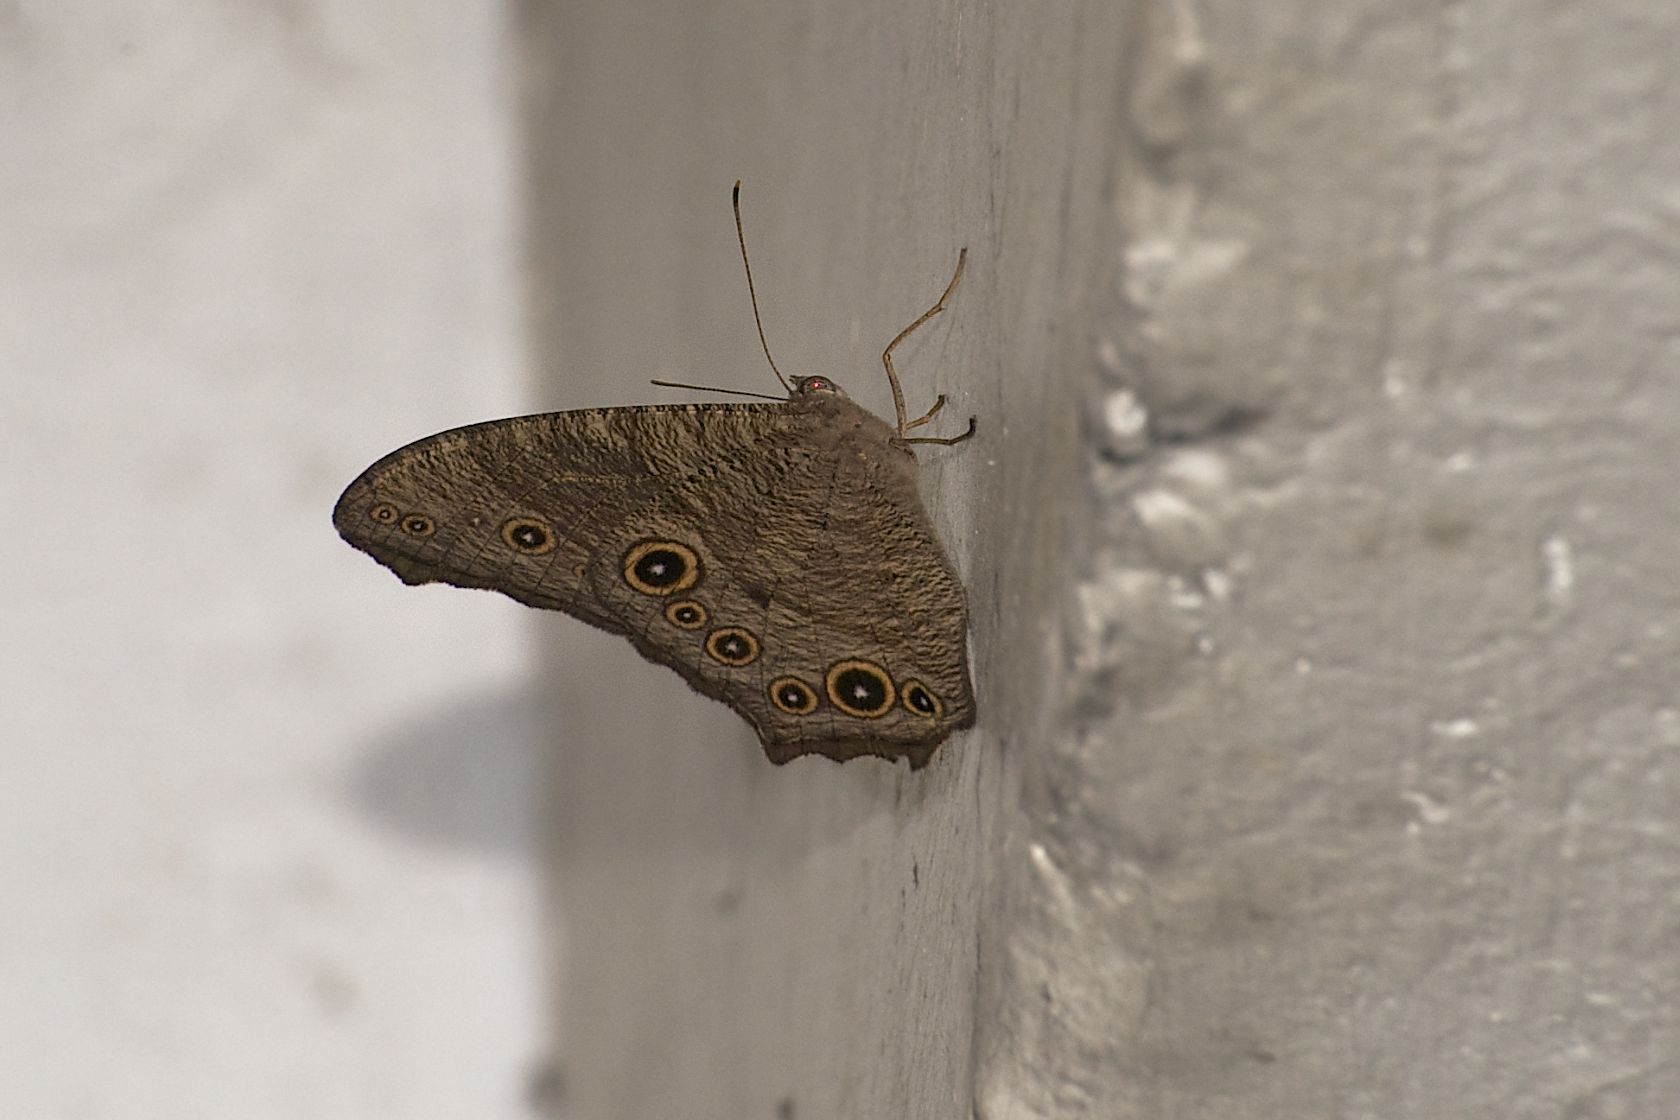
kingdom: Animalia
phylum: Arthropoda
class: Insecta
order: Lepidoptera
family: Nymphalidae
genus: Melanitis
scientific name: Melanitis leda
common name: Twilight brown
